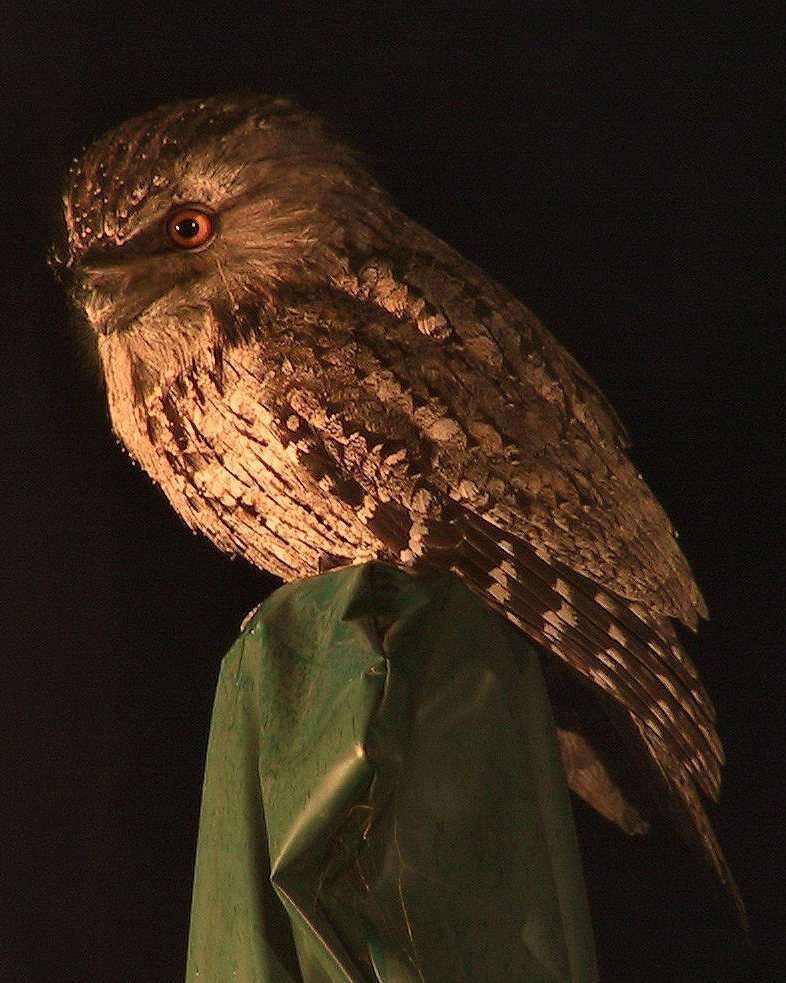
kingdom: Animalia
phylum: Chordata
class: Aves
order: Caprimulgiformes
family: Podargidae
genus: Podargus
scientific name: Podargus strigoides
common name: Tawny frogmouth
